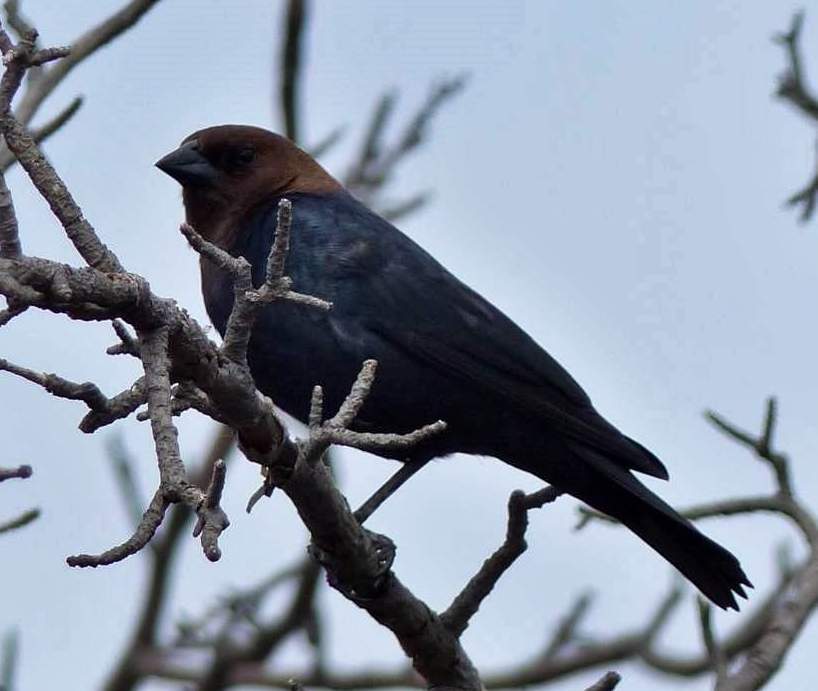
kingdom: Animalia
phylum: Chordata
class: Aves
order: Passeriformes
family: Icteridae
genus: Molothrus
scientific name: Molothrus ater
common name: Brown-headed cowbird
